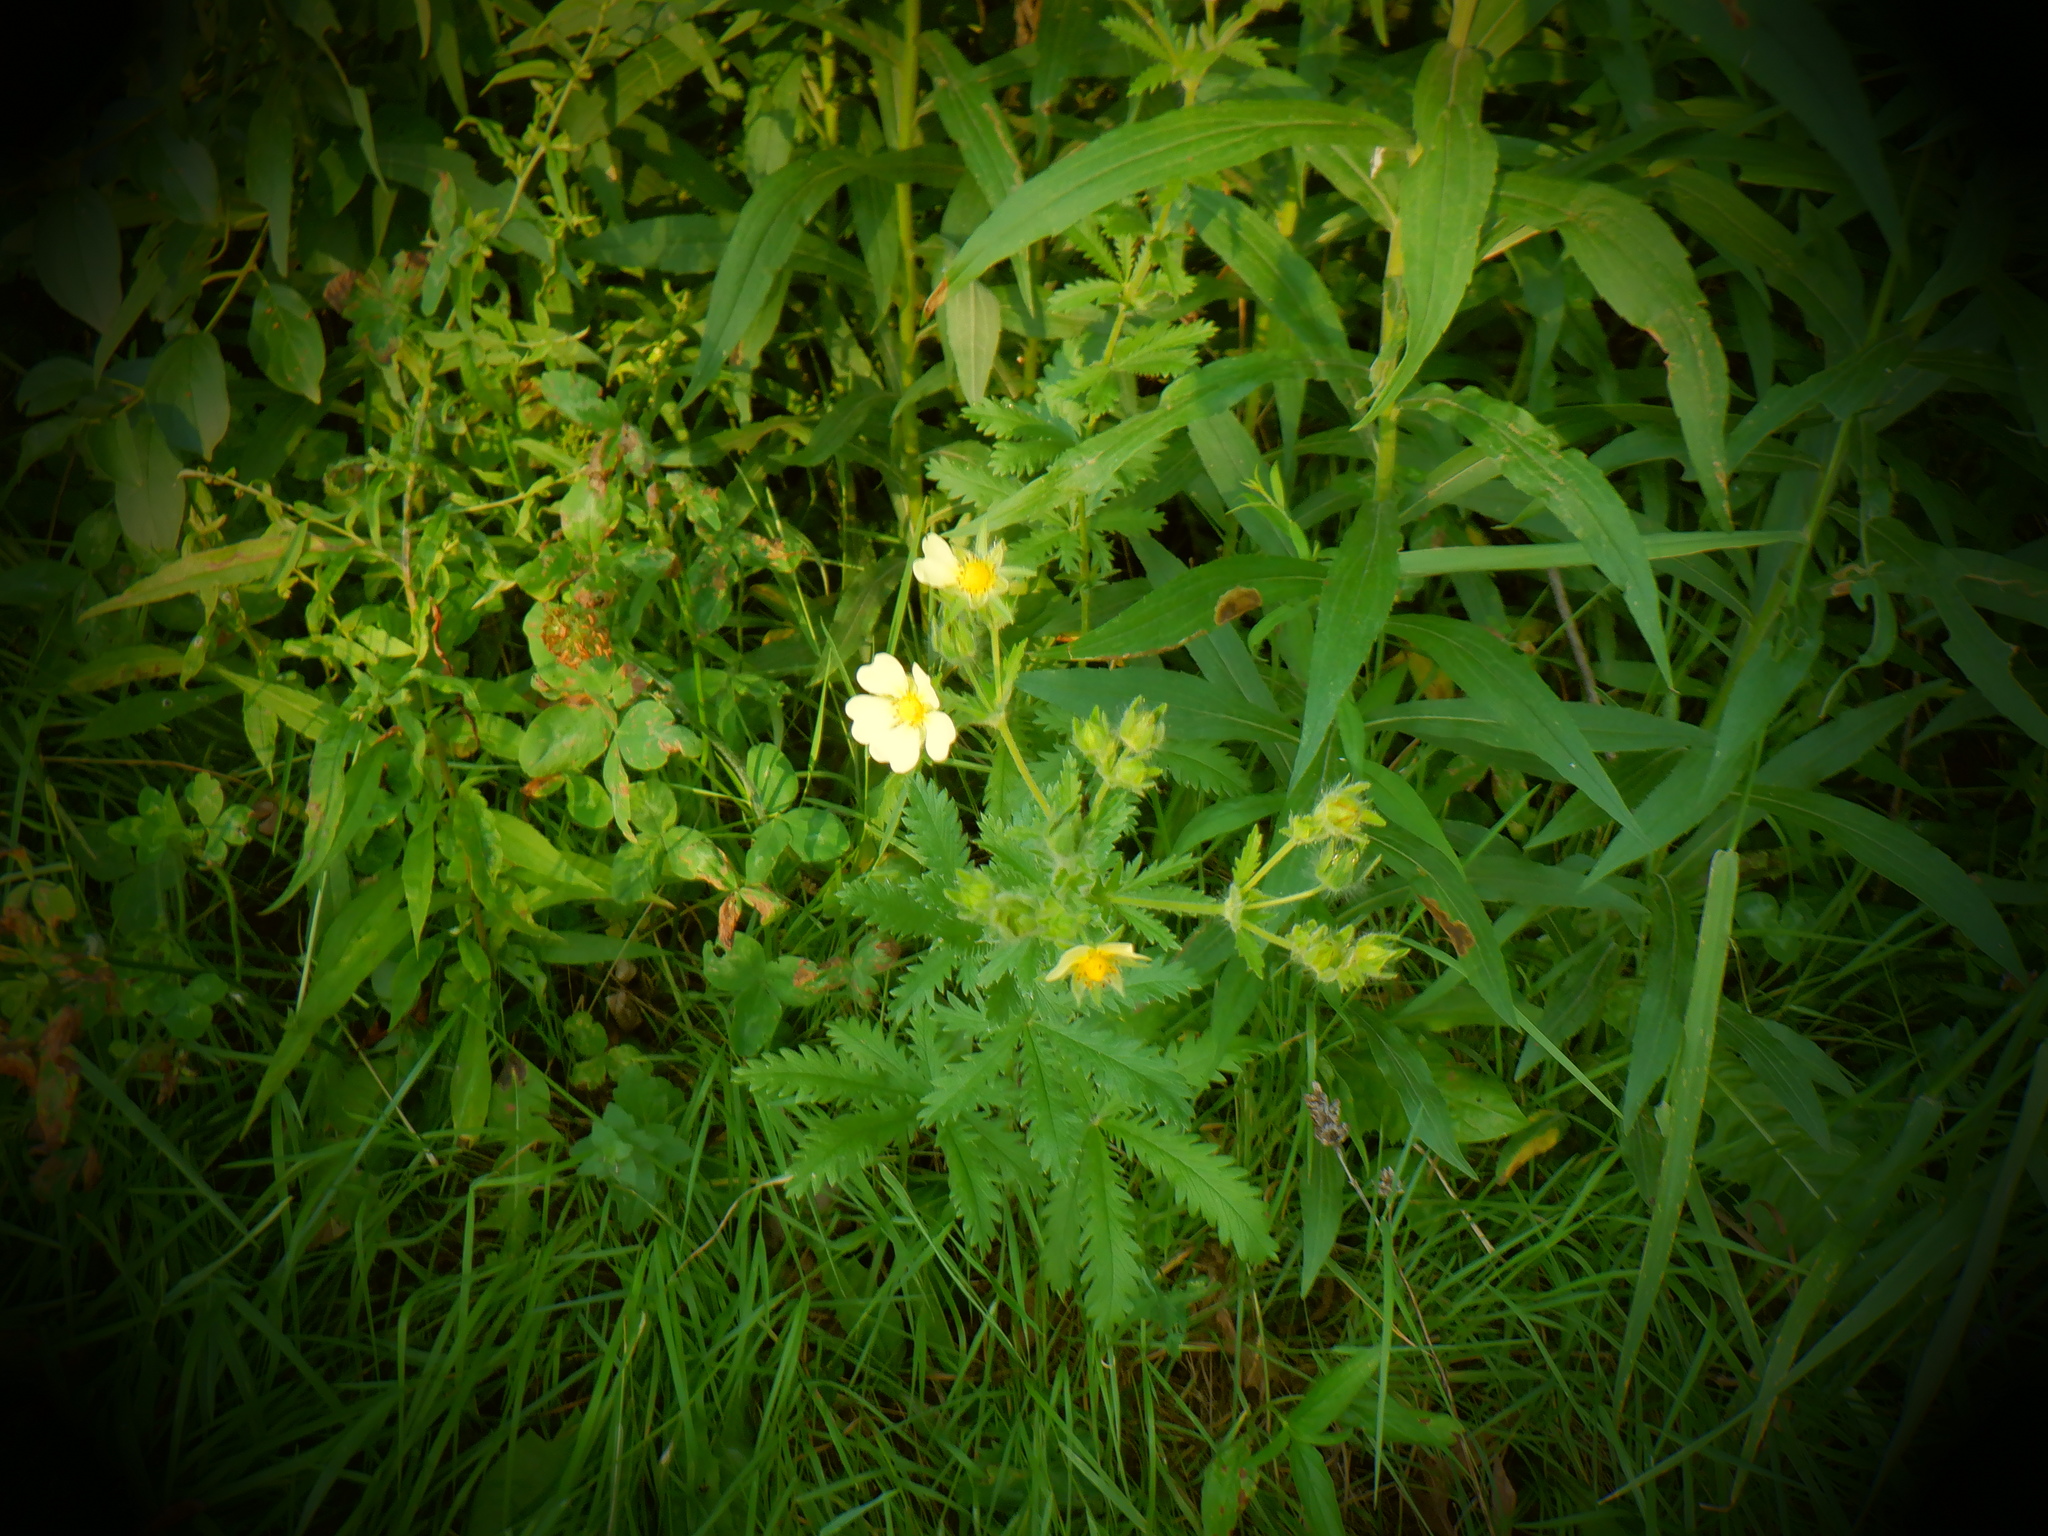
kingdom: Plantae
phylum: Tracheophyta
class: Magnoliopsida
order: Rosales
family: Rosaceae
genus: Potentilla
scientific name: Potentilla recta
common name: Sulphur cinquefoil
